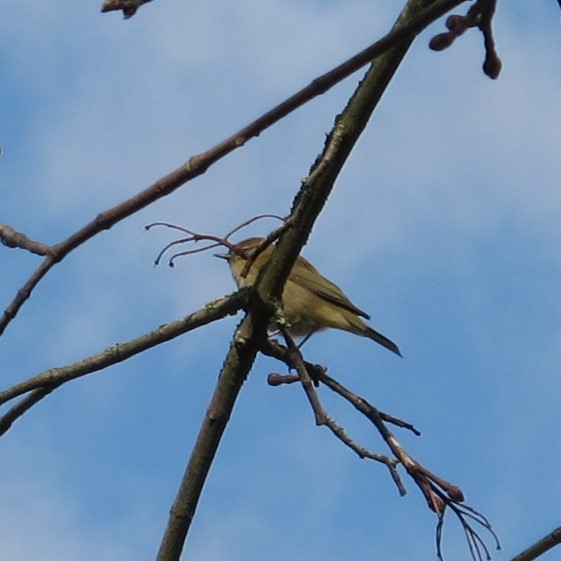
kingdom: Animalia
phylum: Chordata
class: Aves
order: Passeriformes
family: Phylloscopidae
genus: Phylloscopus
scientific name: Phylloscopus collybita
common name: Common chiffchaff
